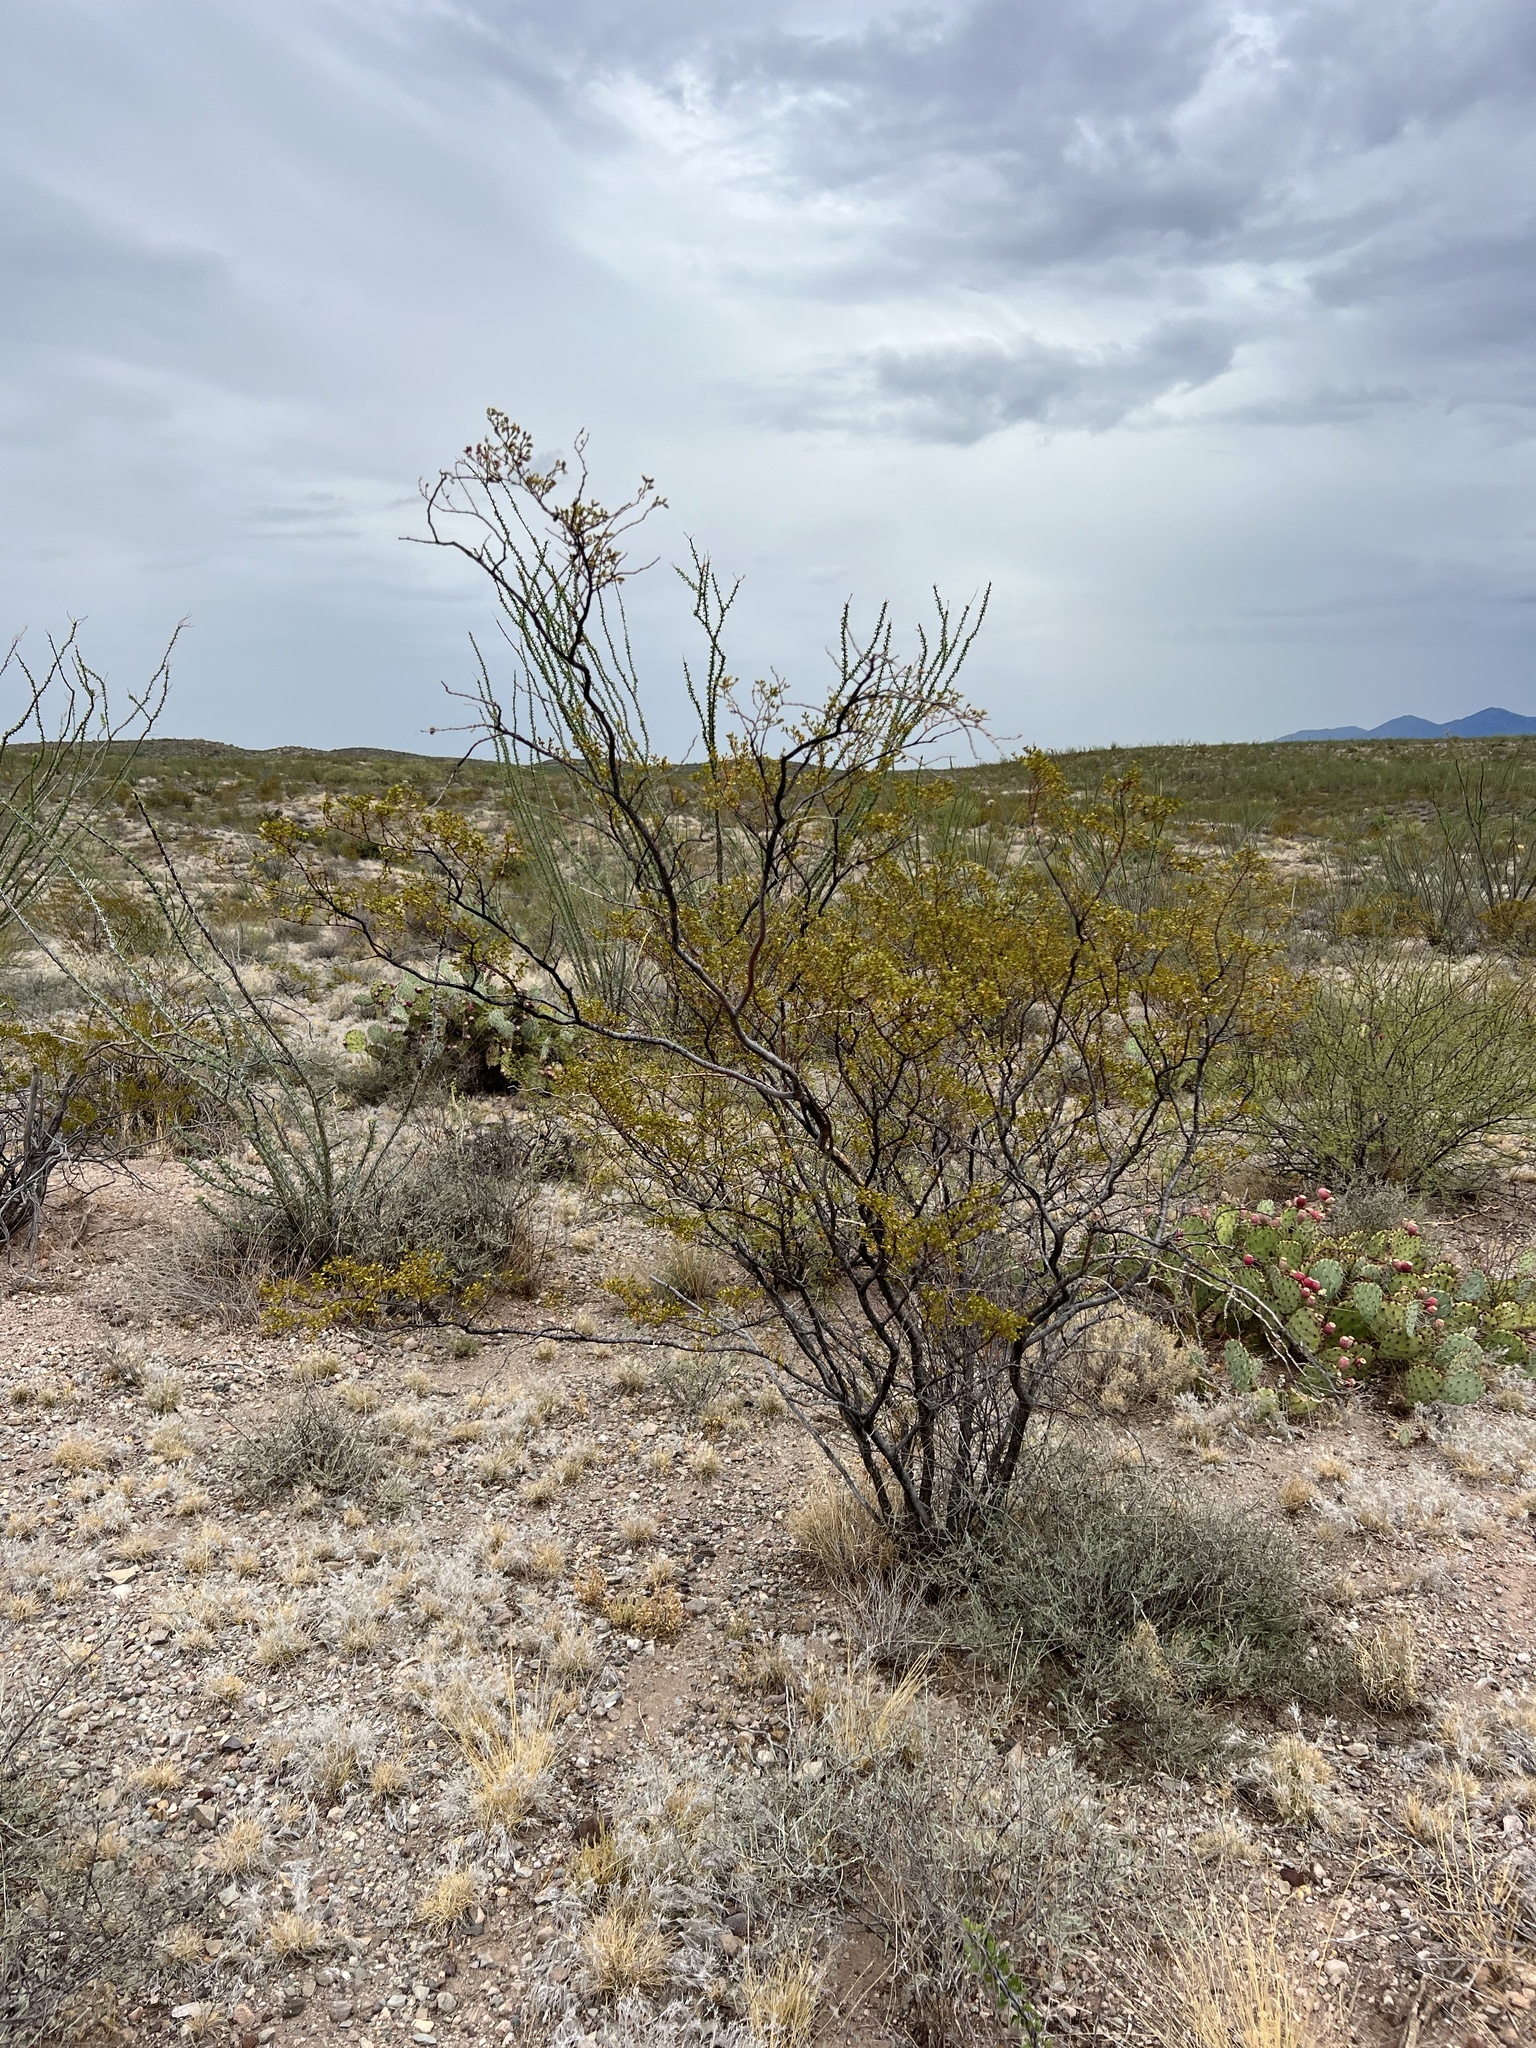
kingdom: Plantae
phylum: Tracheophyta
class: Magnoliopsida
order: Zygophyllales
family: Zygophyllaceae
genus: Larrea
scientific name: Larrea tridentata
